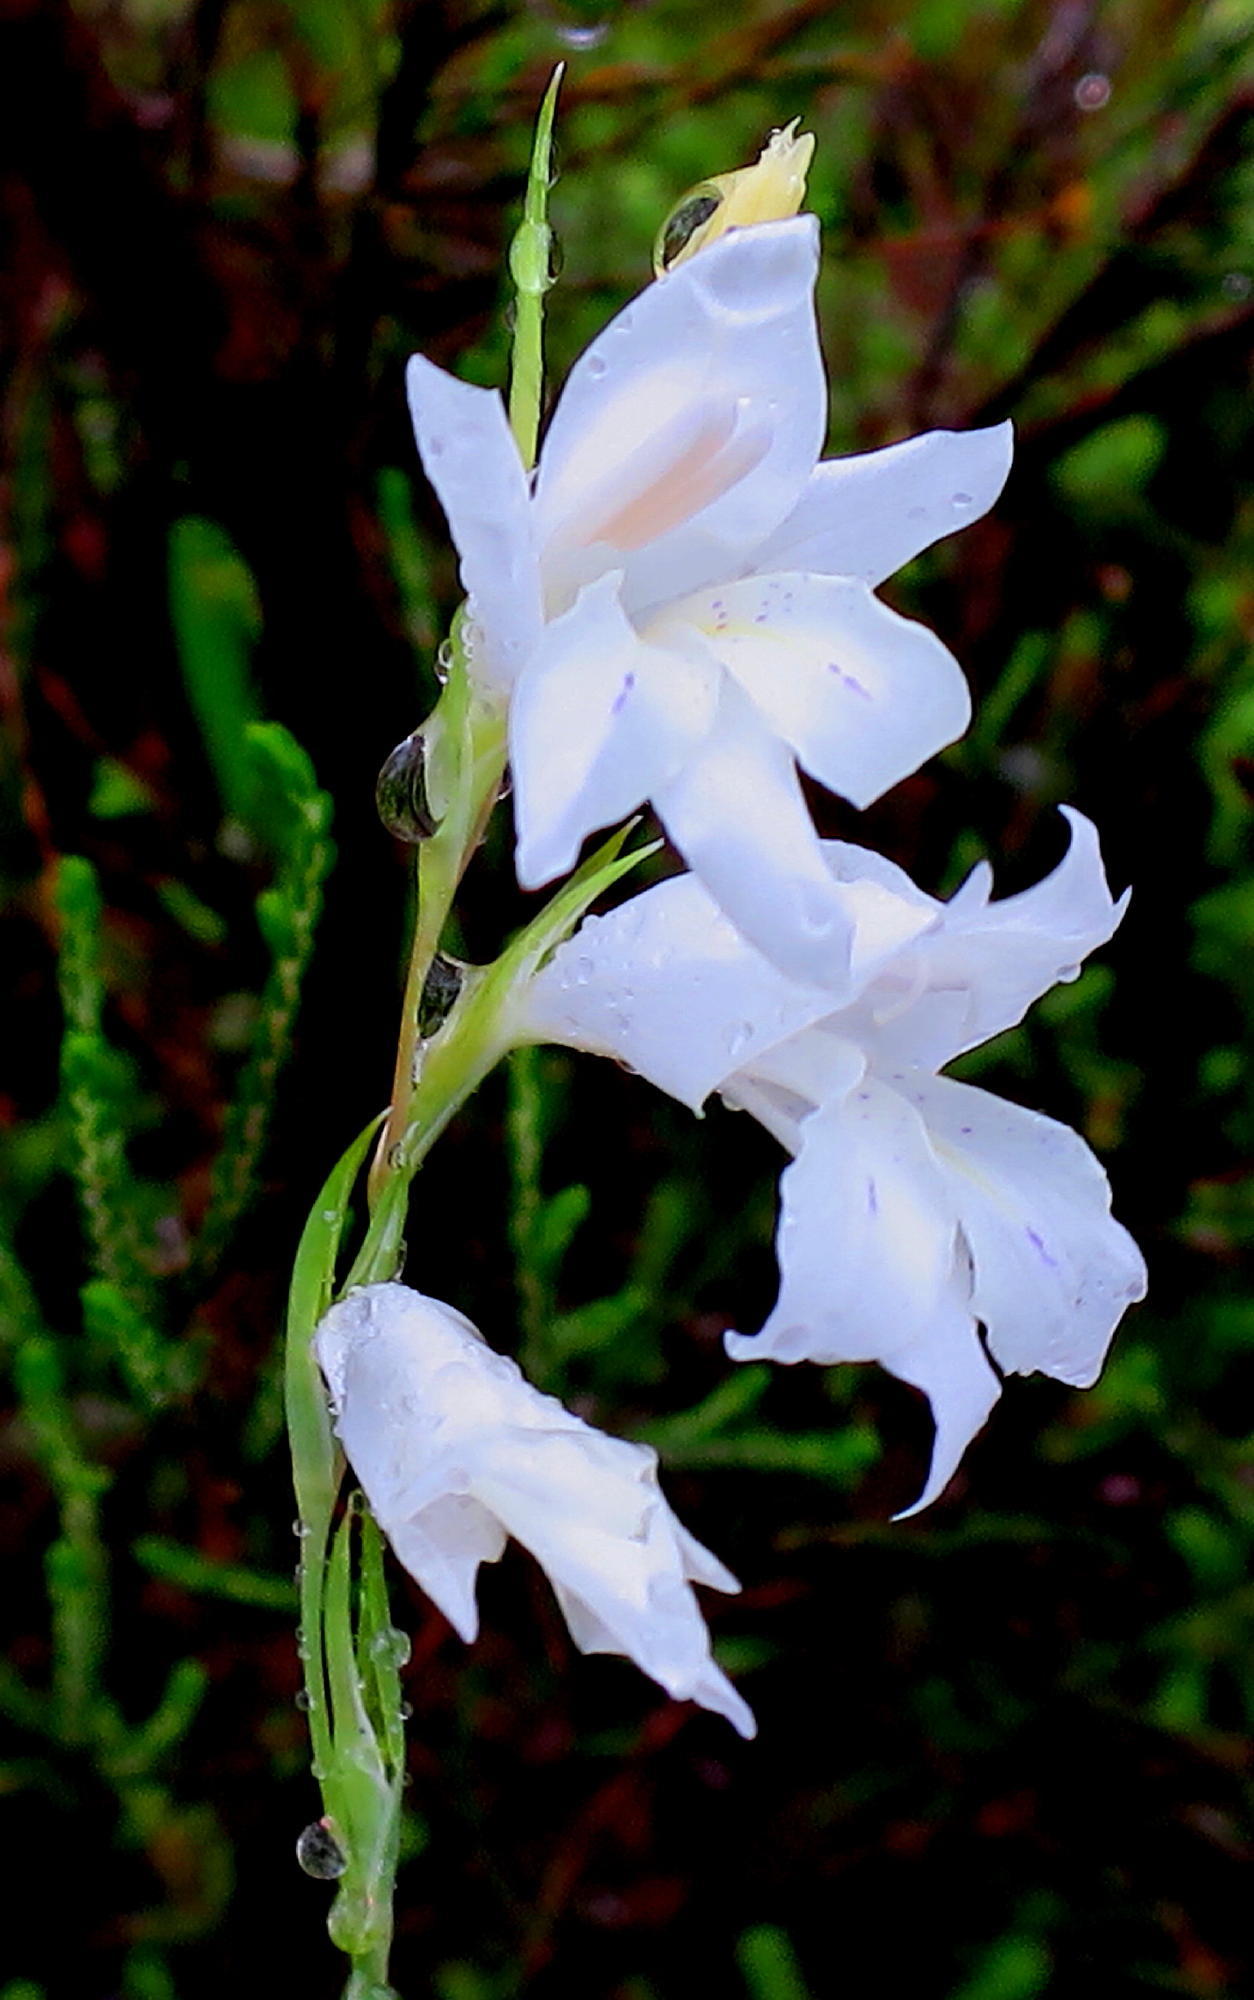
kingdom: Plantae
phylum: Tracheophyta
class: Liliopsida
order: Asparagales
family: Iridaceae
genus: Gladiolus
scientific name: Gladiolus vaginatus
